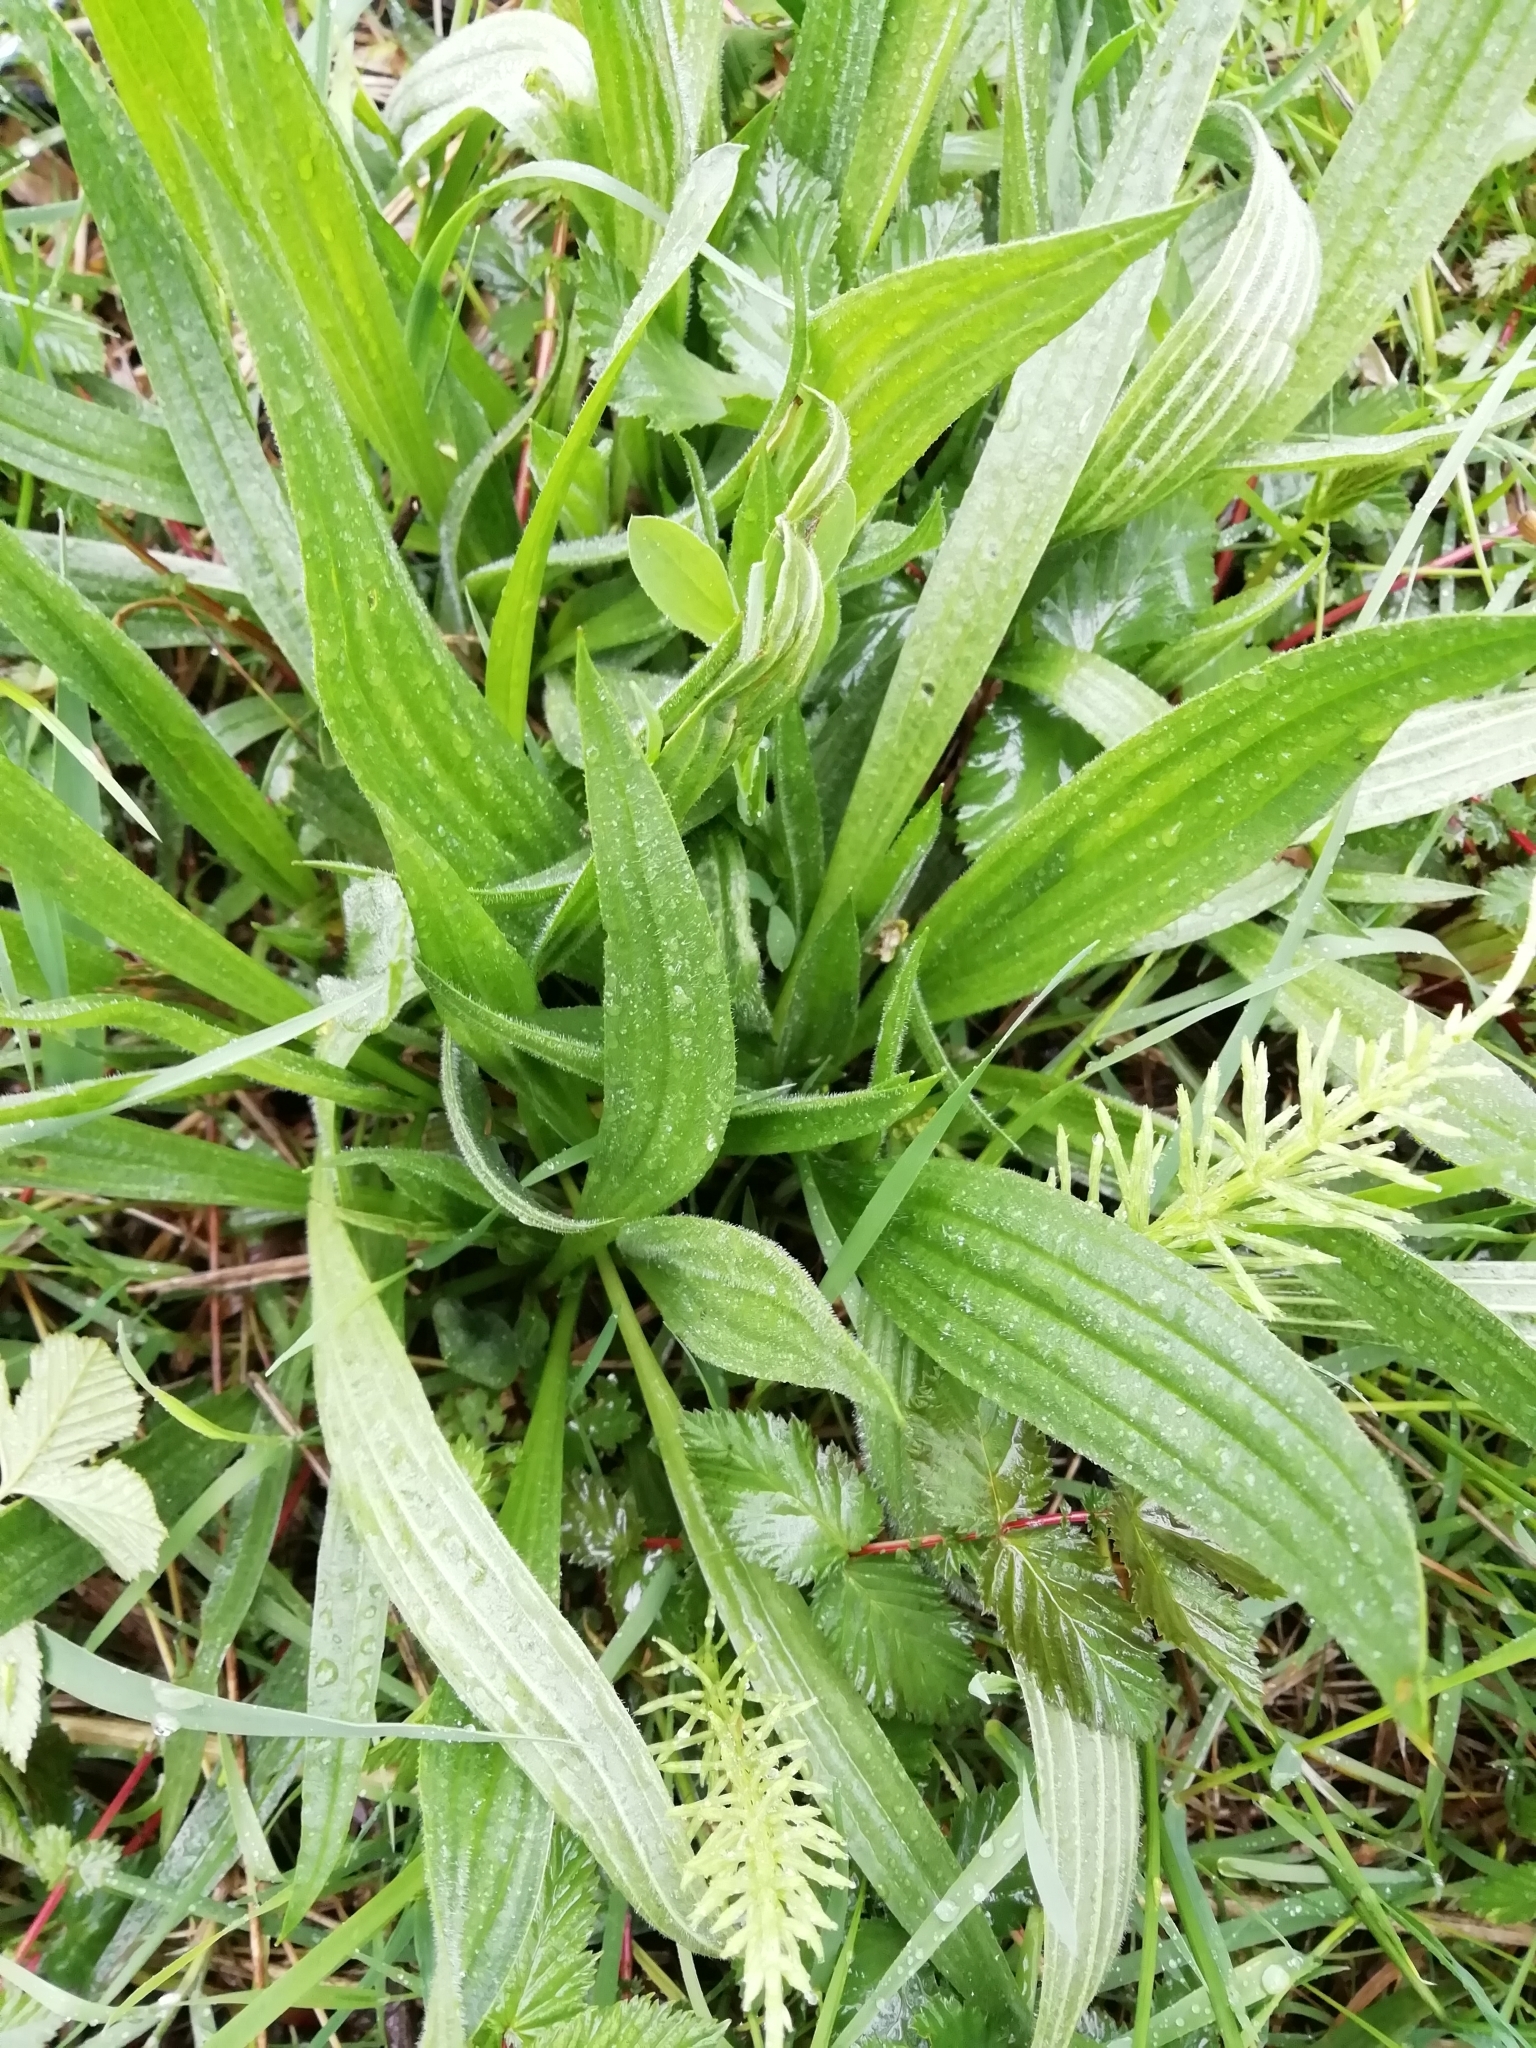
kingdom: Plantae
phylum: Tracheophyta
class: Magnoliopsida
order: Lamiales
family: Plantaginaceae
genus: Plantago
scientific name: Plantago lanceolata
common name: Ribwort plantain
